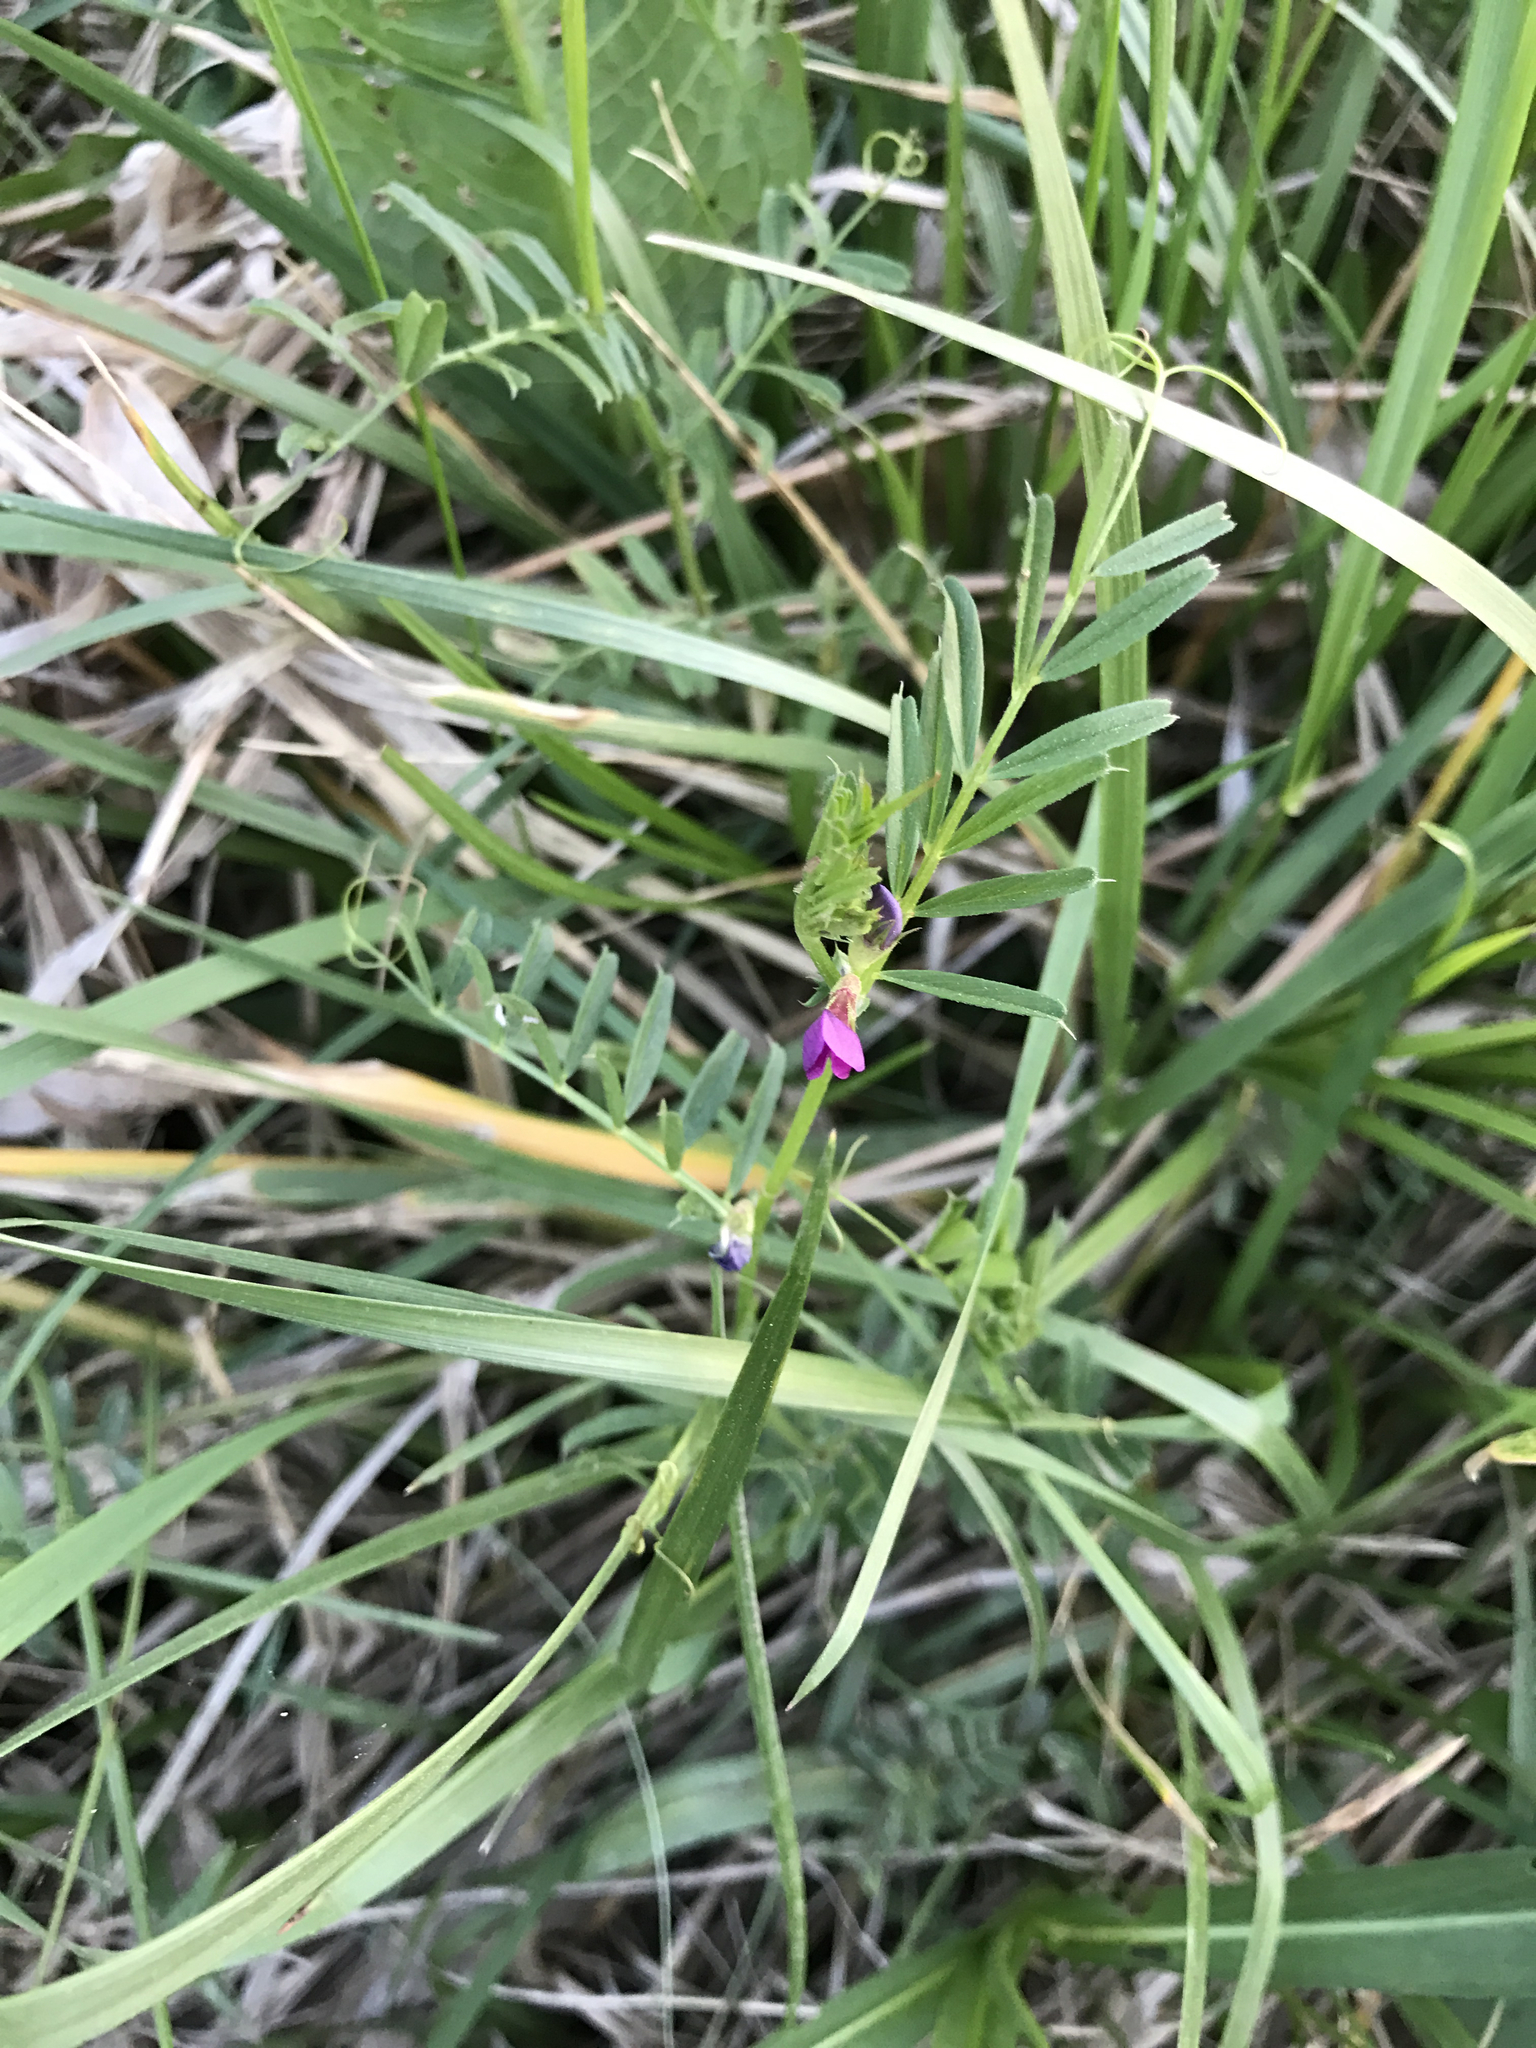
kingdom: Plantae
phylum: Tracheophyta
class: Magnoliopsida
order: Fabales
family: Fabaceae
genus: Vicia
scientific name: Vicia sativa
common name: Garden vetch
